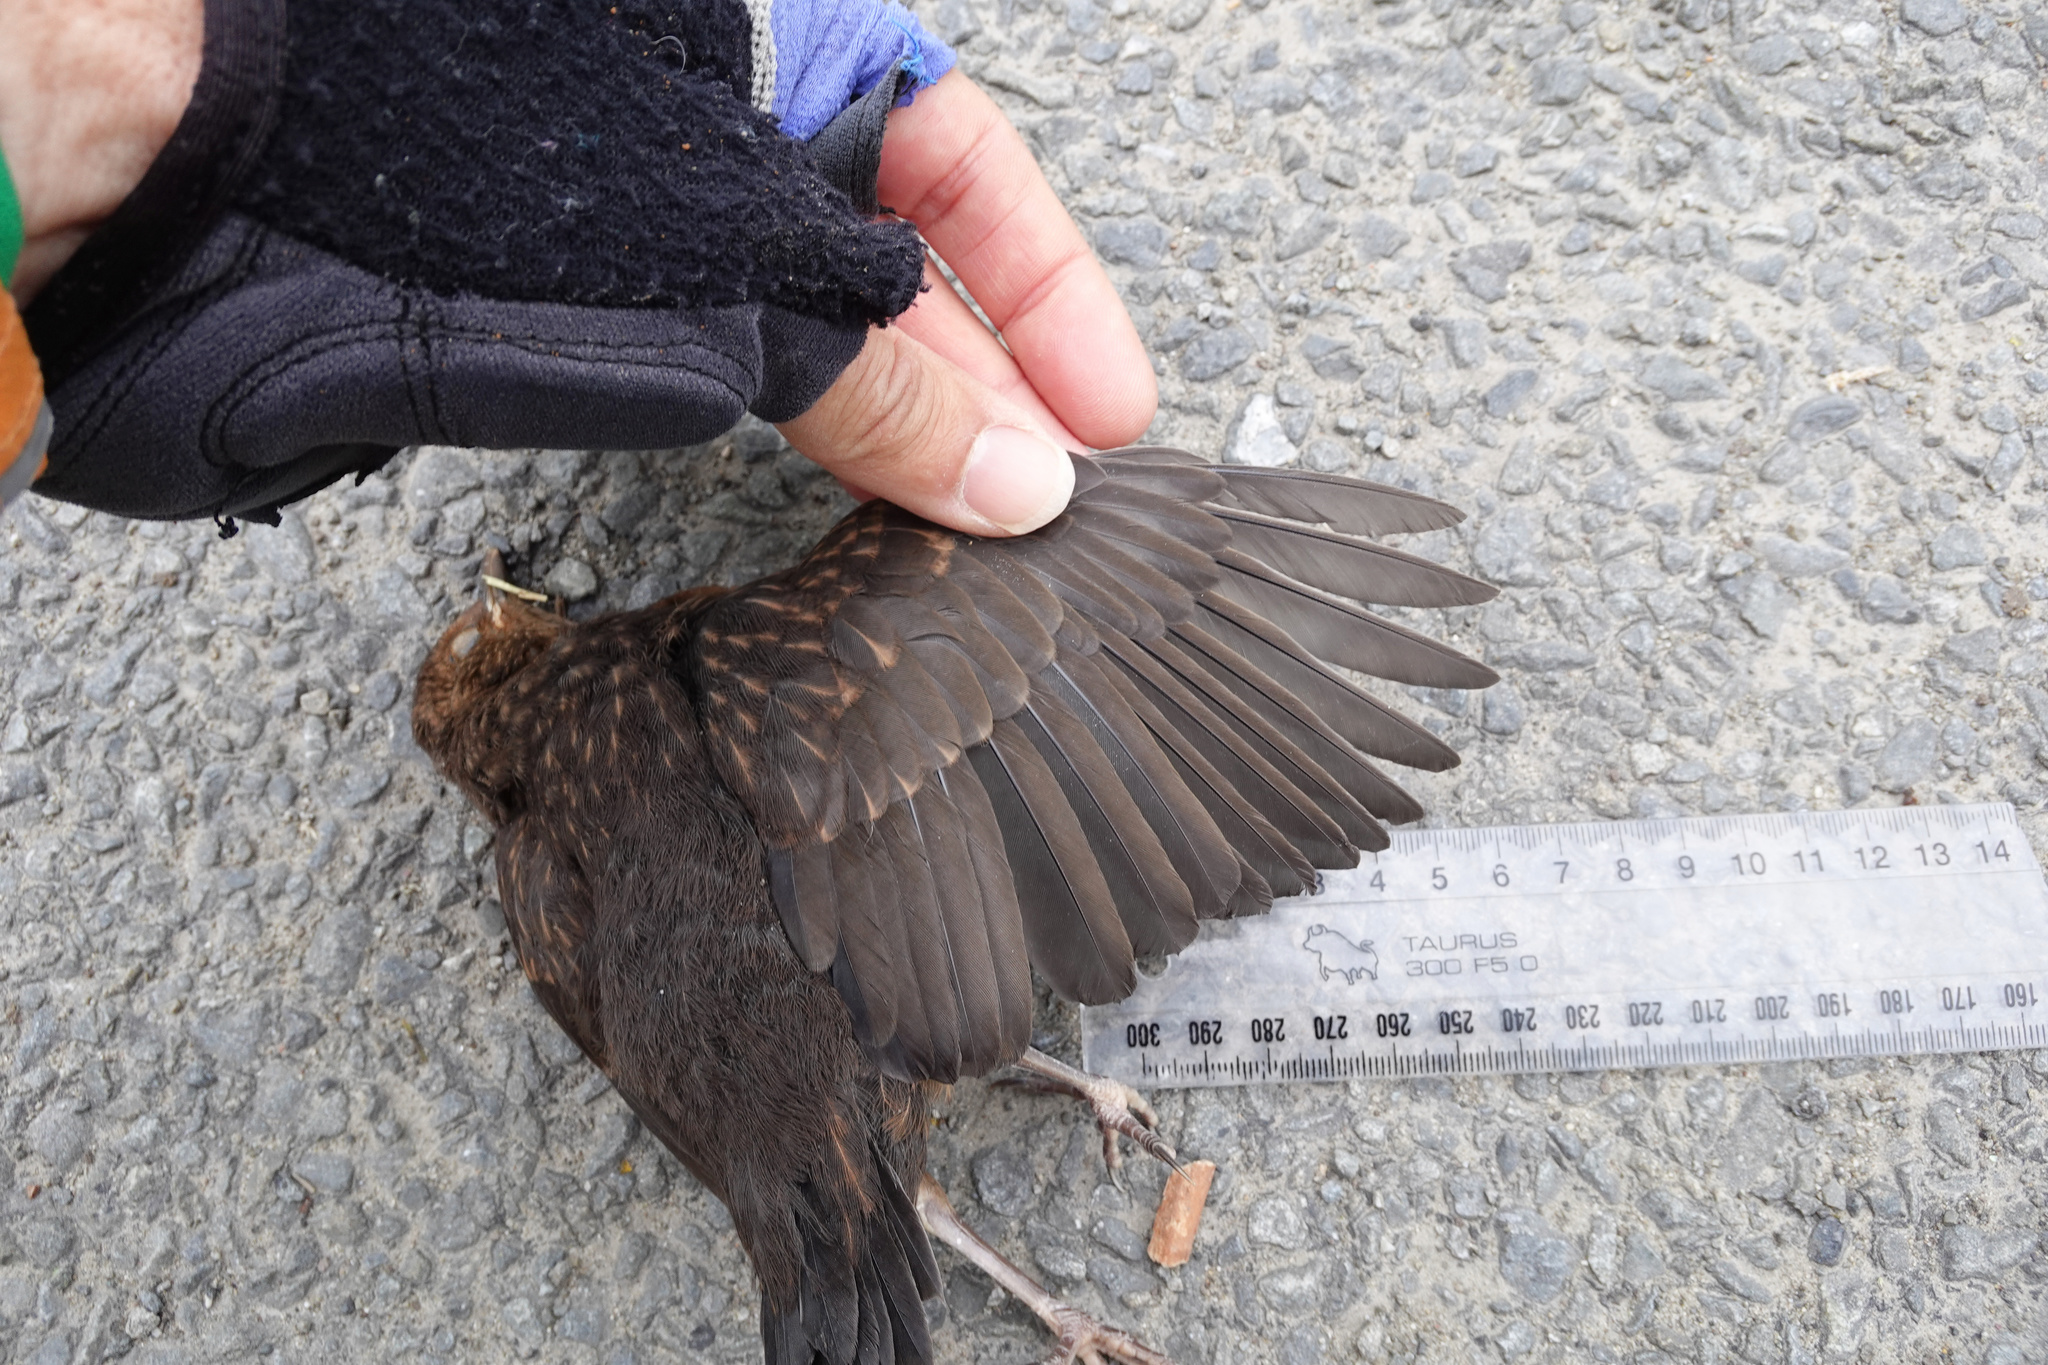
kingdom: Animalia
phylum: Chordata
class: Aves
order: Passeriformes
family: Turdidae
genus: Turdus
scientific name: Turdus merula
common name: Common blackbird
